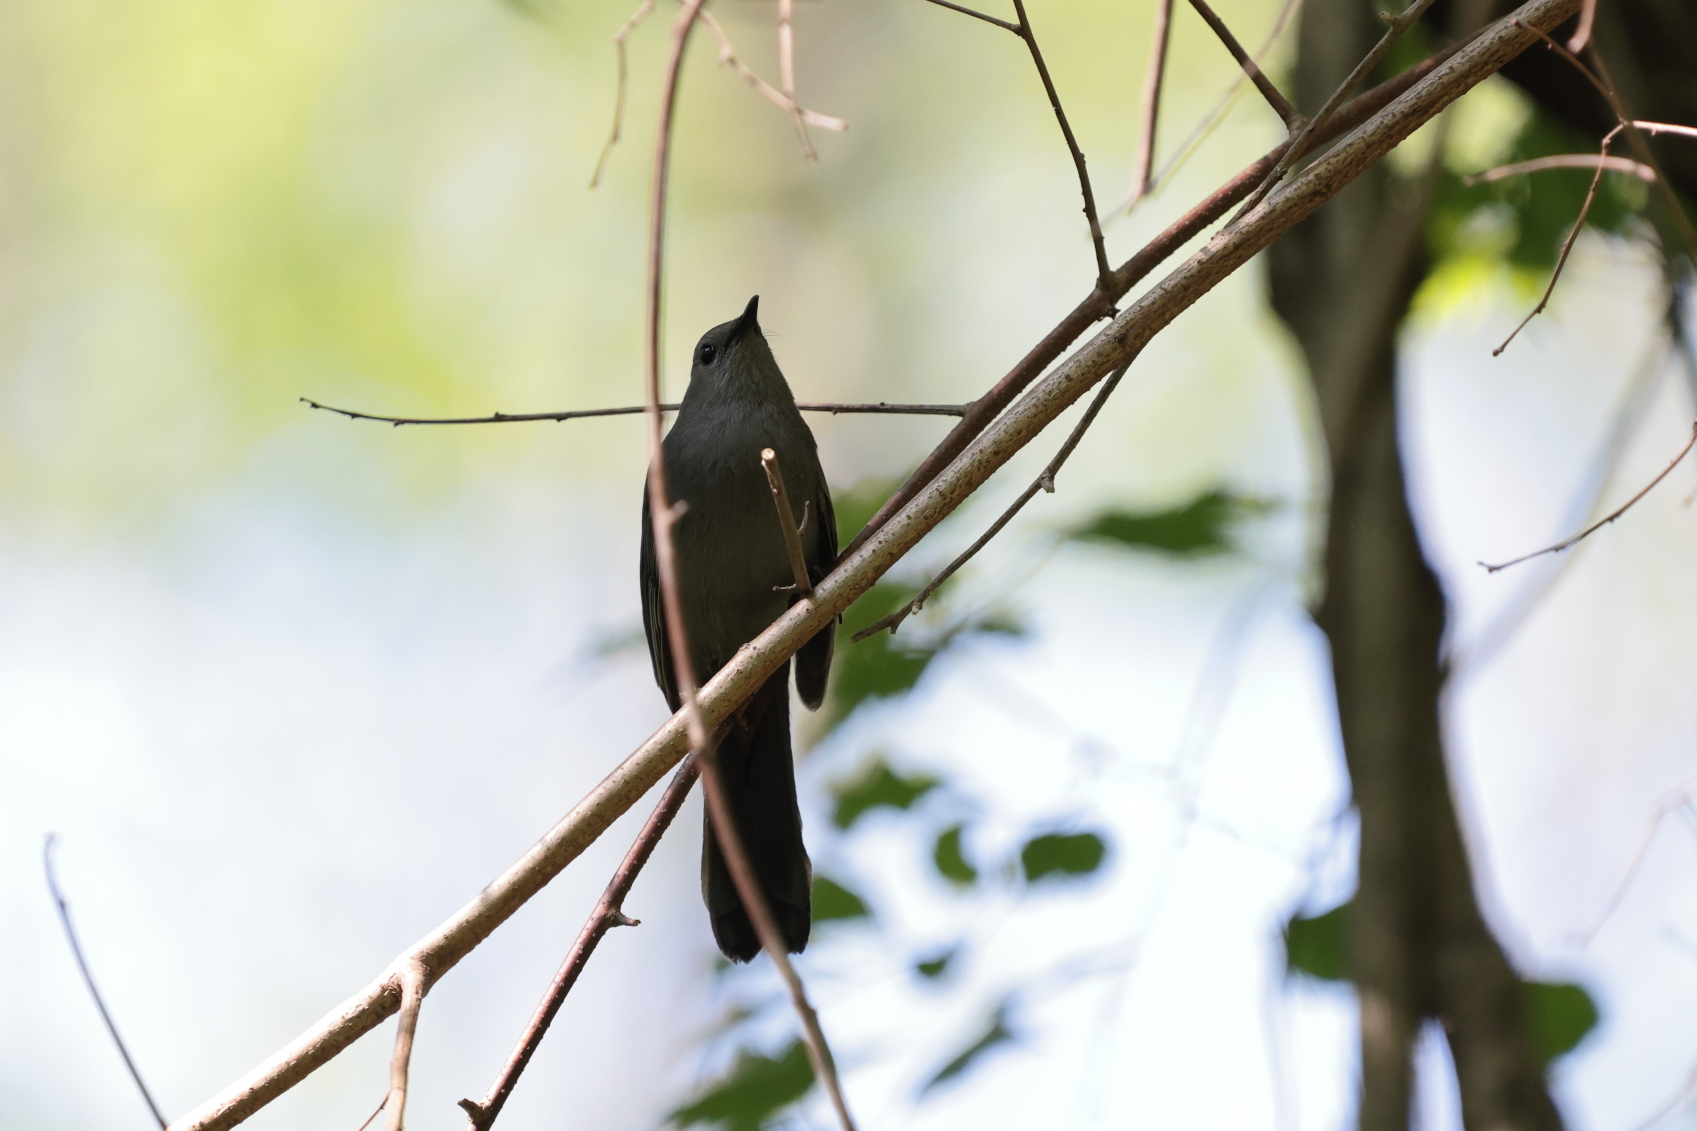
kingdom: Animalia
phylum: Chordata
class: Aves
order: Passeriformes
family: Mimidae
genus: Dumetella
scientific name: Dumetella carolinensis
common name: Gray catbird
